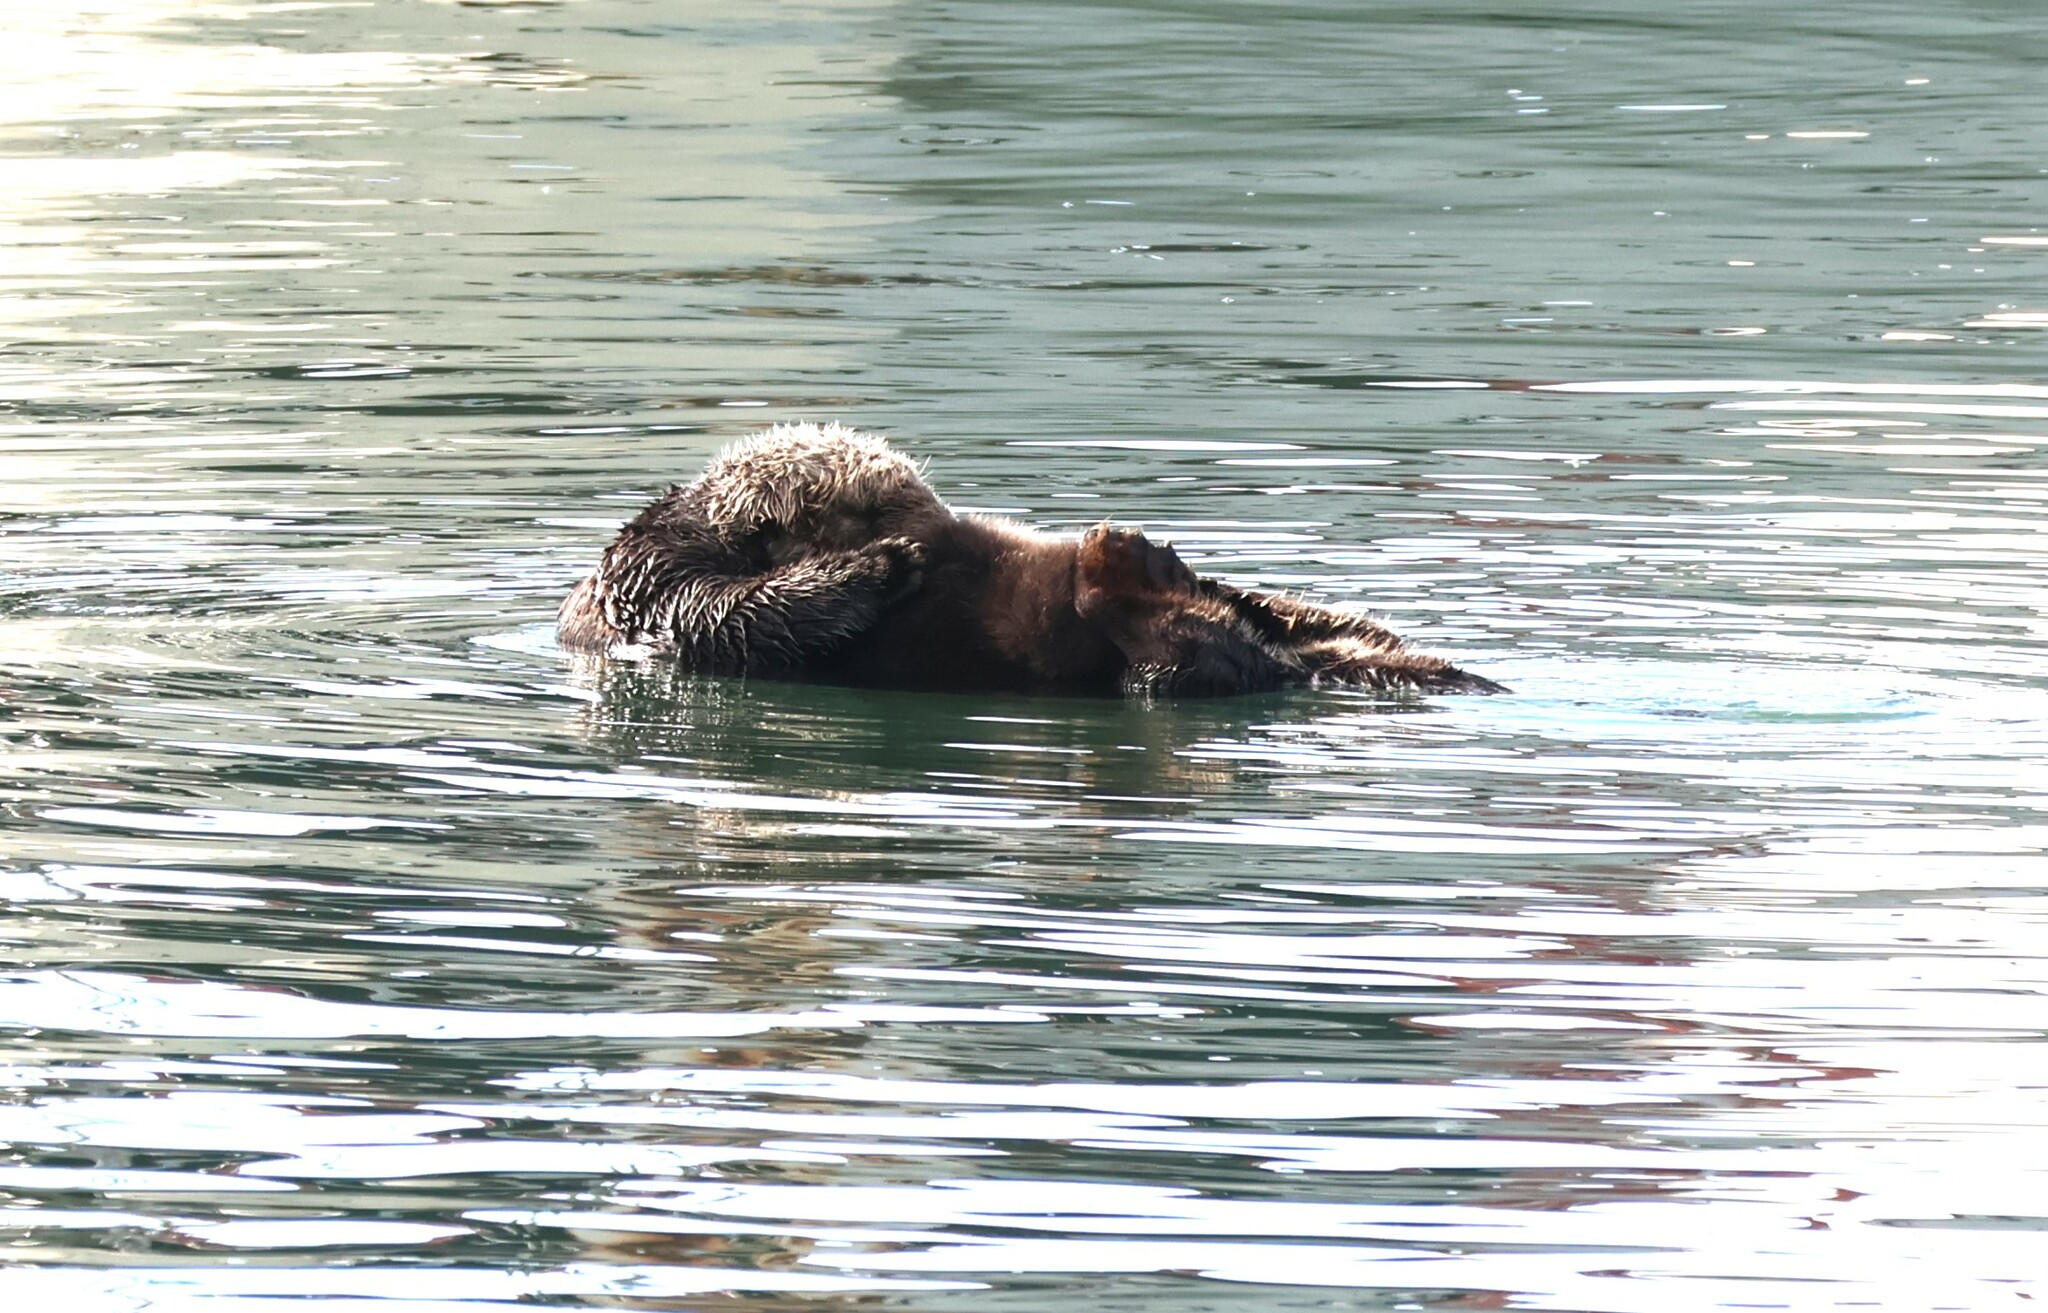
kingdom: Animalia
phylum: Chordata
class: Mammalia
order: Carnivora
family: Mustelidae
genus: Enhydra
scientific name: Enhydra lutris
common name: Sea otter
